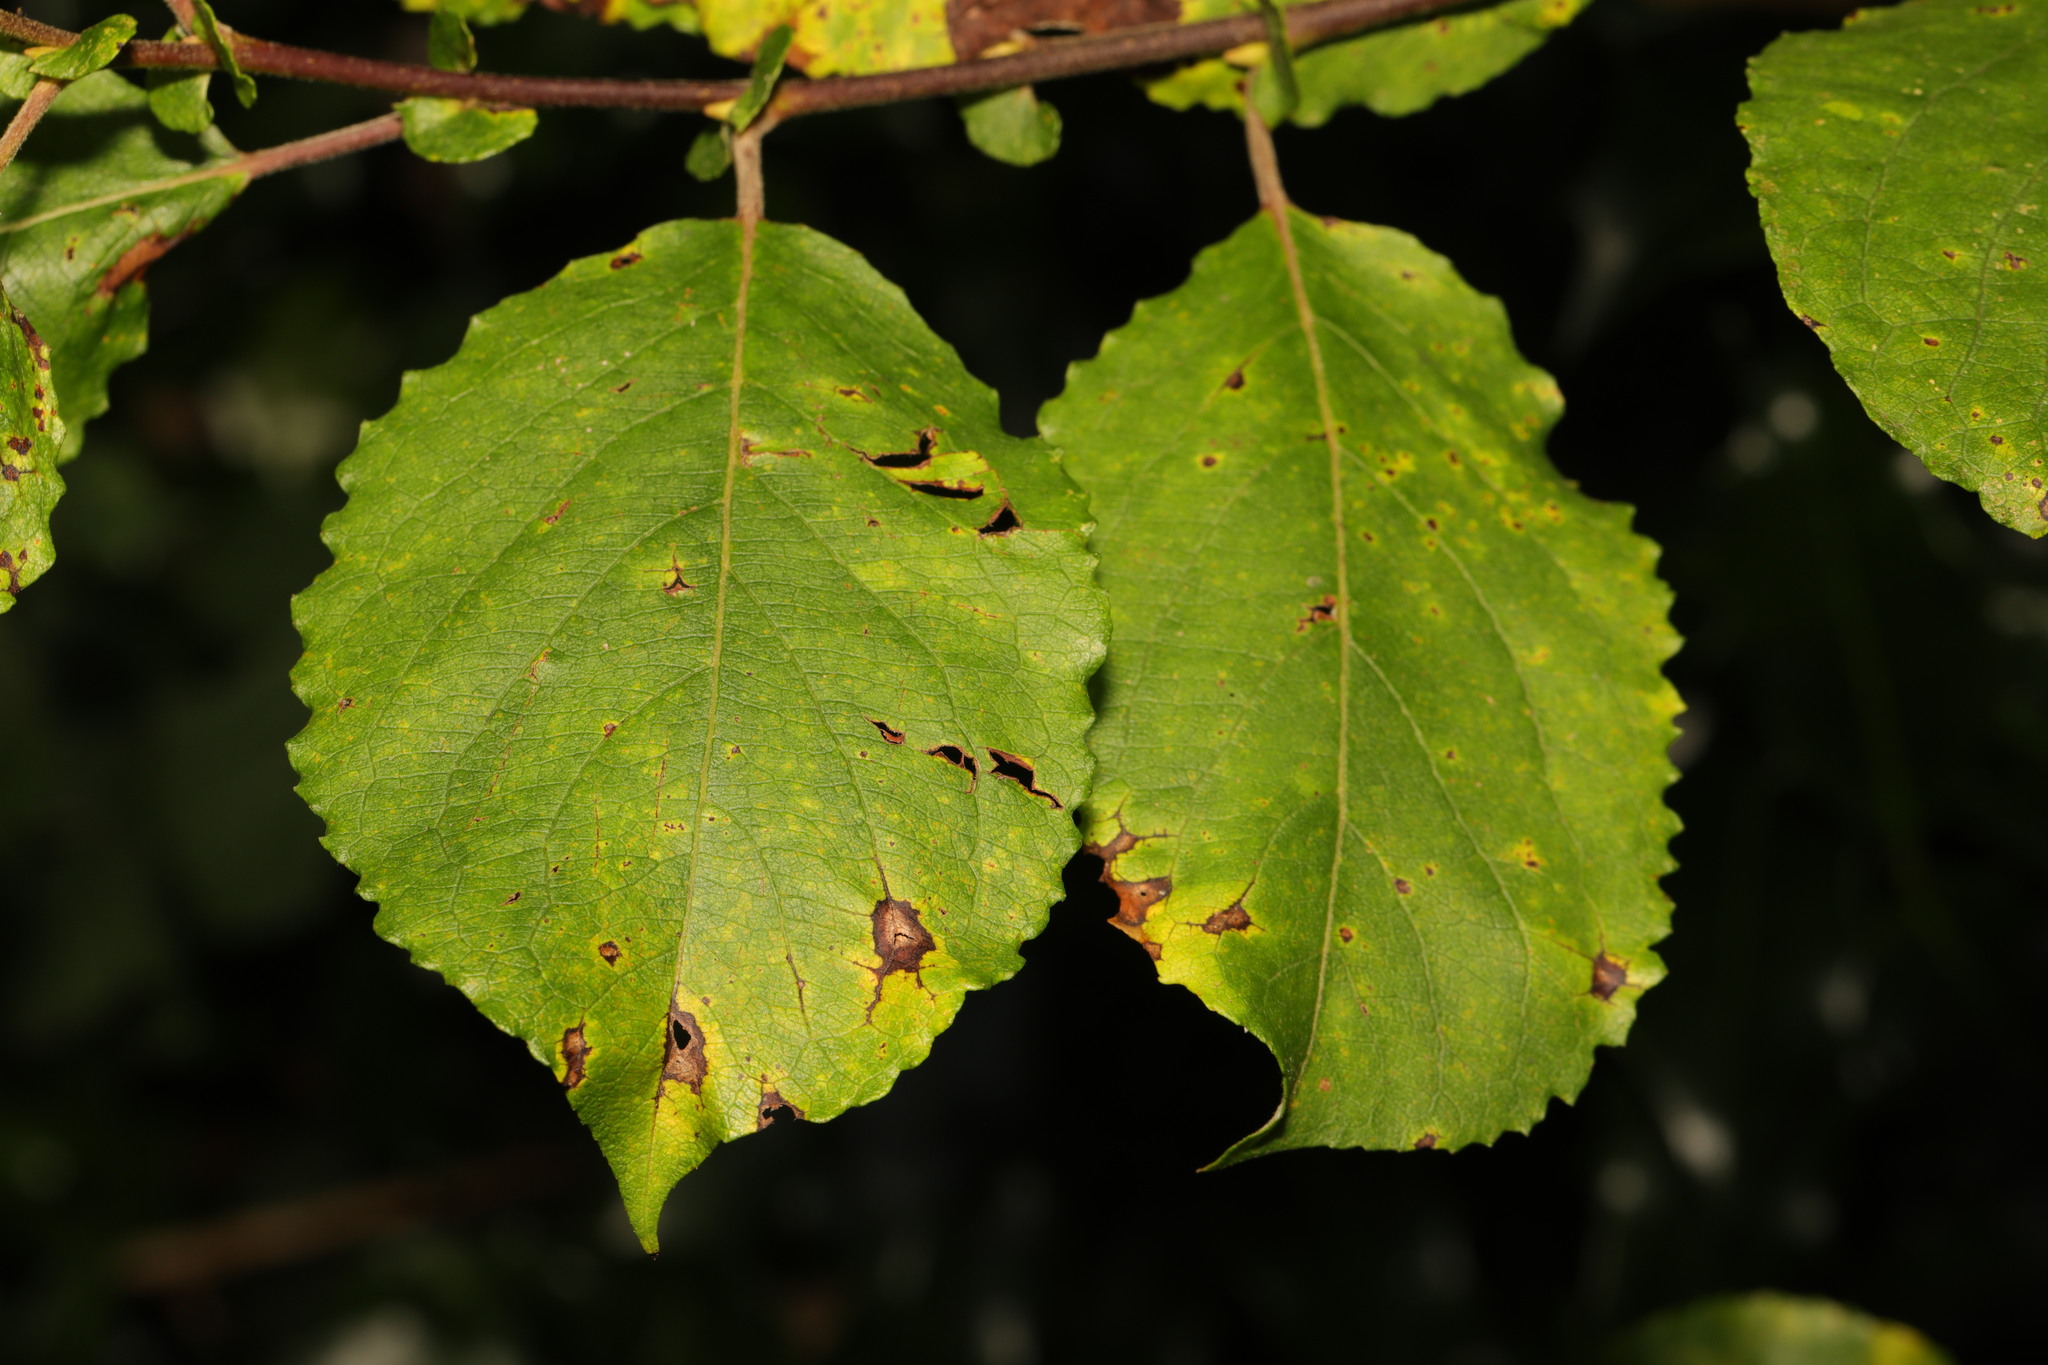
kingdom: Plantae
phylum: Tracheophyta
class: Magnoliopsida
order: Malpighiales
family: Salicaceae
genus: Salix
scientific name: Salix caprea
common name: Goat willow
